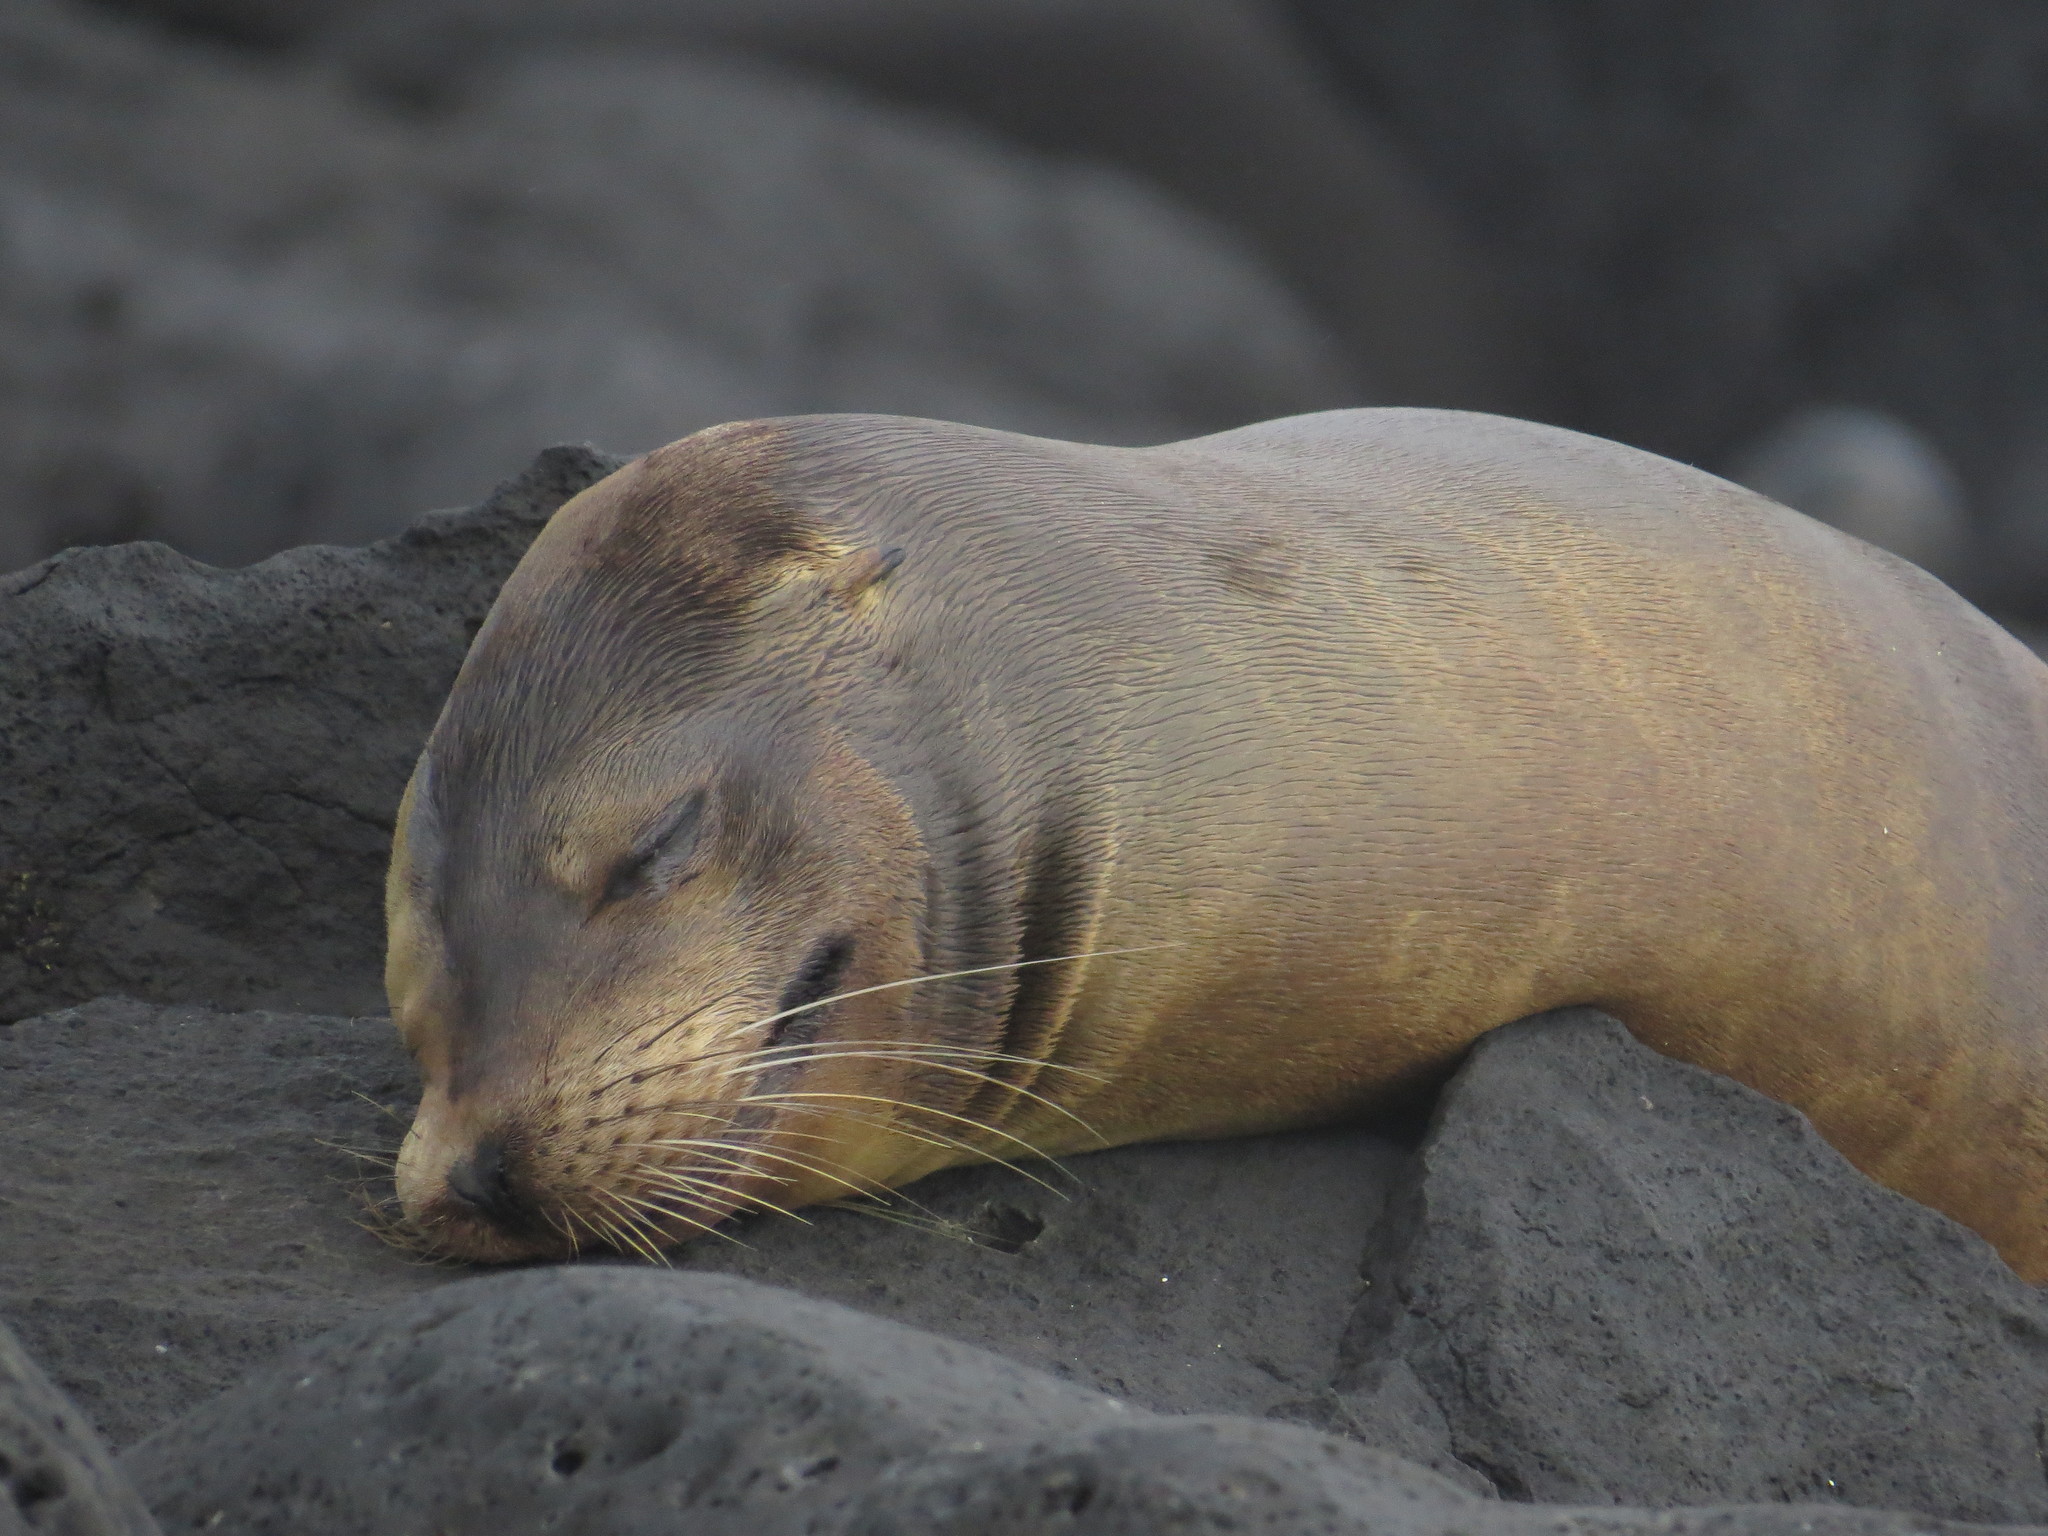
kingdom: Animalia
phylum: Chordata
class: Mammalia
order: Carnivora
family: Otariidae
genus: Zalophus
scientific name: Zalophus wollebaeki
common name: Galapagos sea lion
